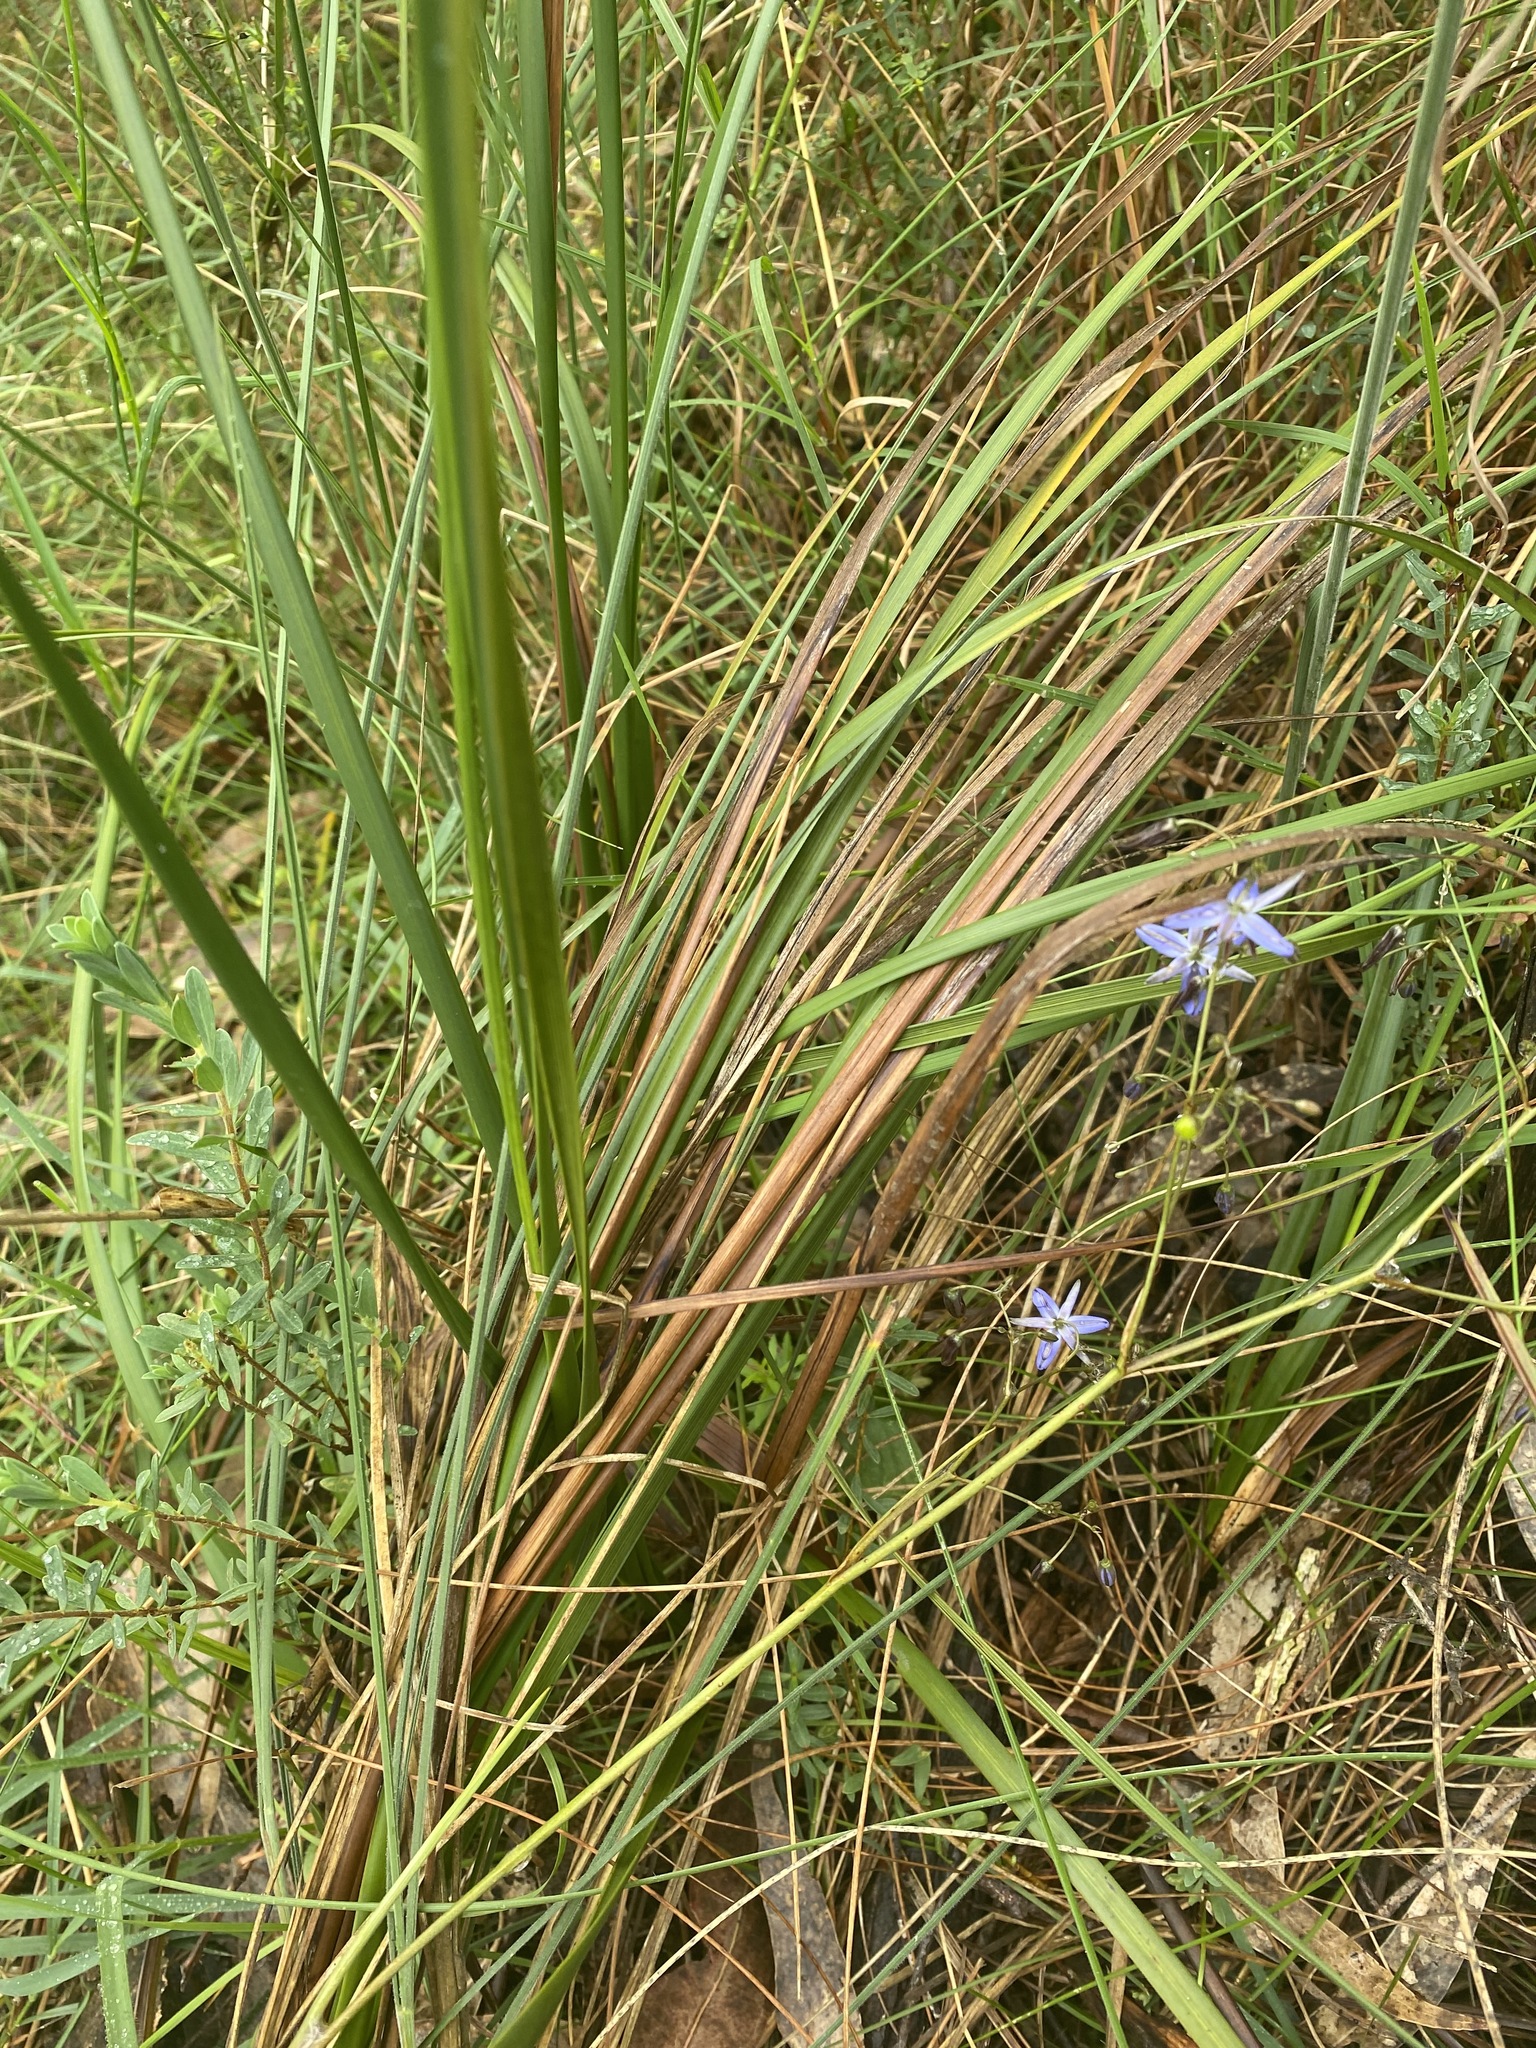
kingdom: Plantae
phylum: Tracheophyta
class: Liliopsida
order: Asparagales
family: Asphodelaceae
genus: Dianella
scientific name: Dianella revoluta
